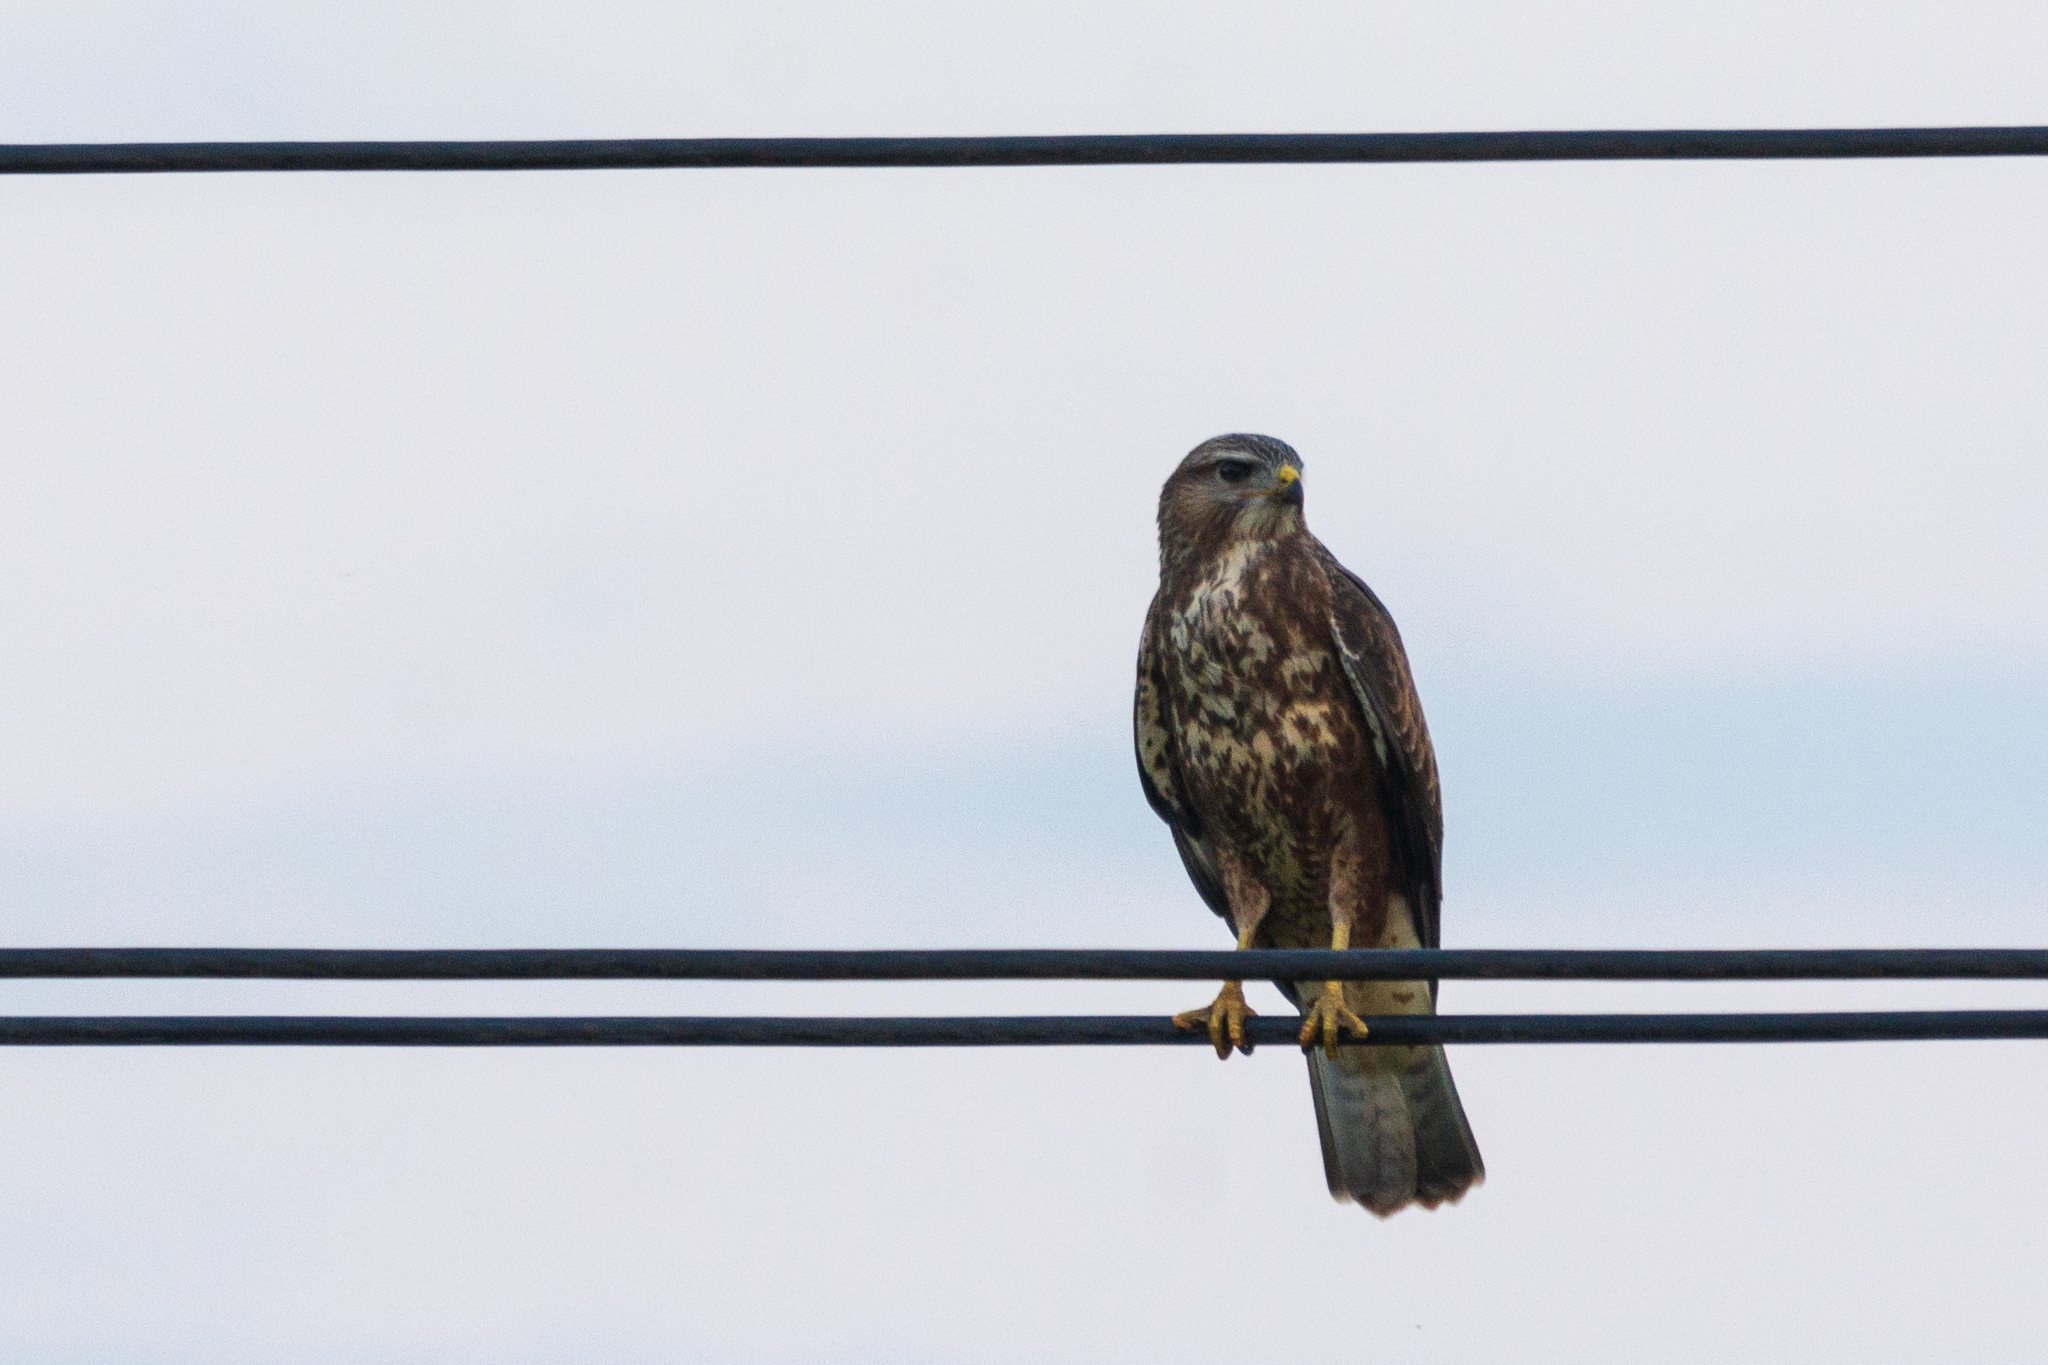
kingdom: Animalia
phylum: Chordata
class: Aves
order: Accipitriformes
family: Accipitridae
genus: Buteo
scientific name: Buteo buteo
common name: Common buzzard
